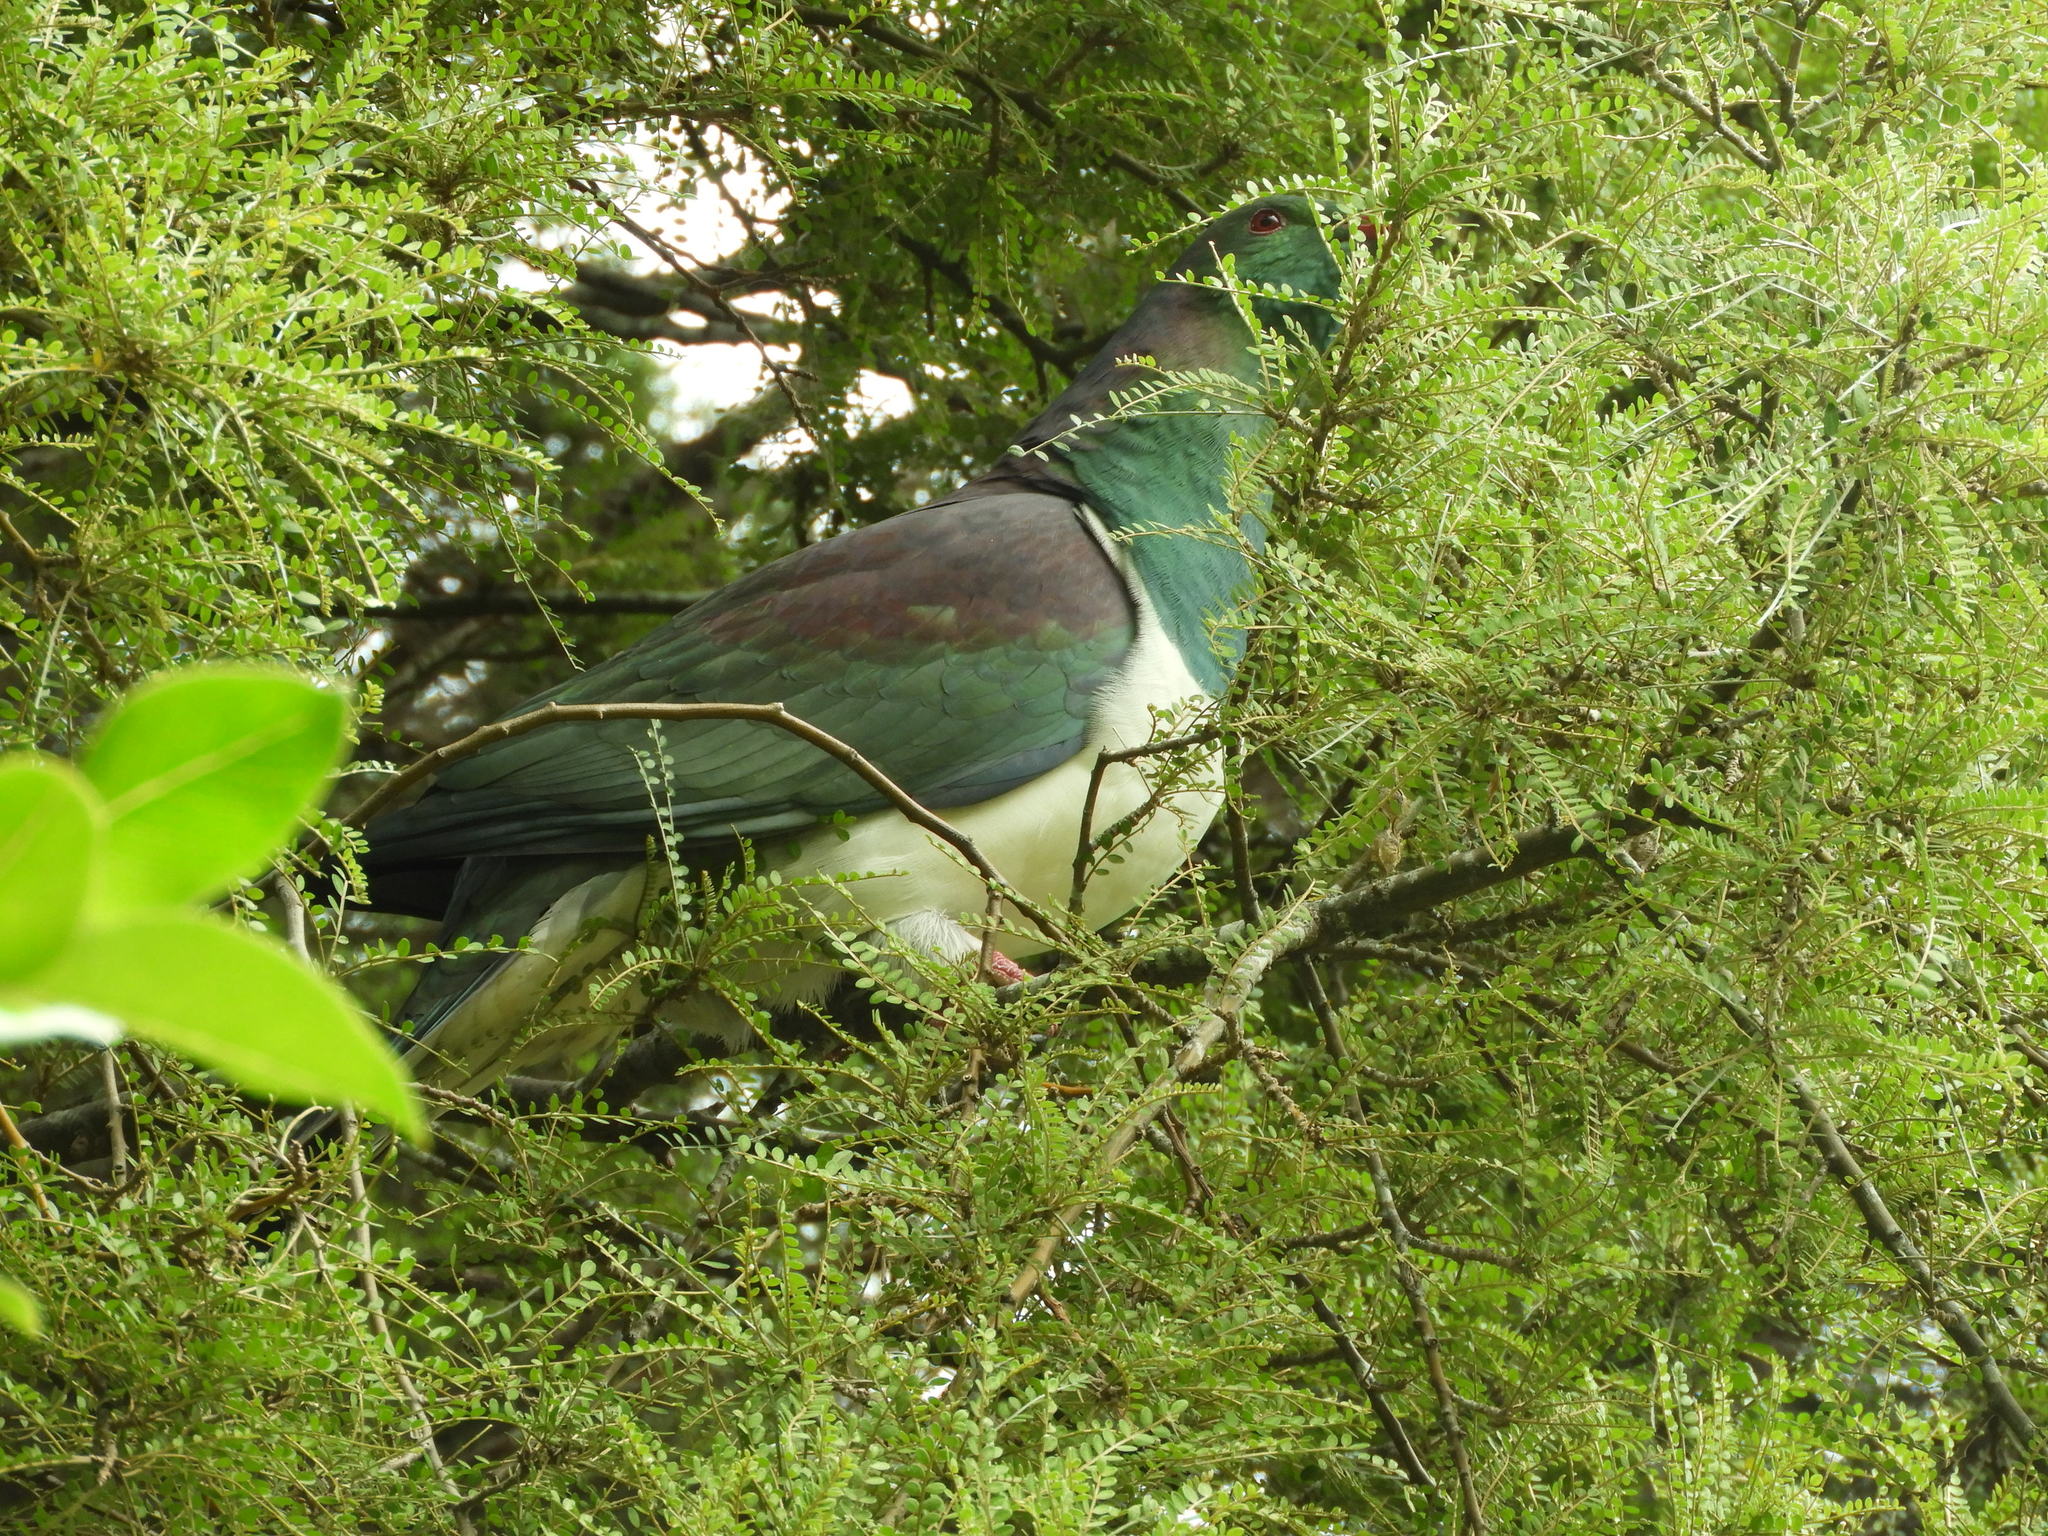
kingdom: Animalia
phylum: Chordata
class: Aves
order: Columbiformes
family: Columbidae
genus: Hemiphaga
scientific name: Hemiphaga novaeseelandiae
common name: New zealand pigeon
